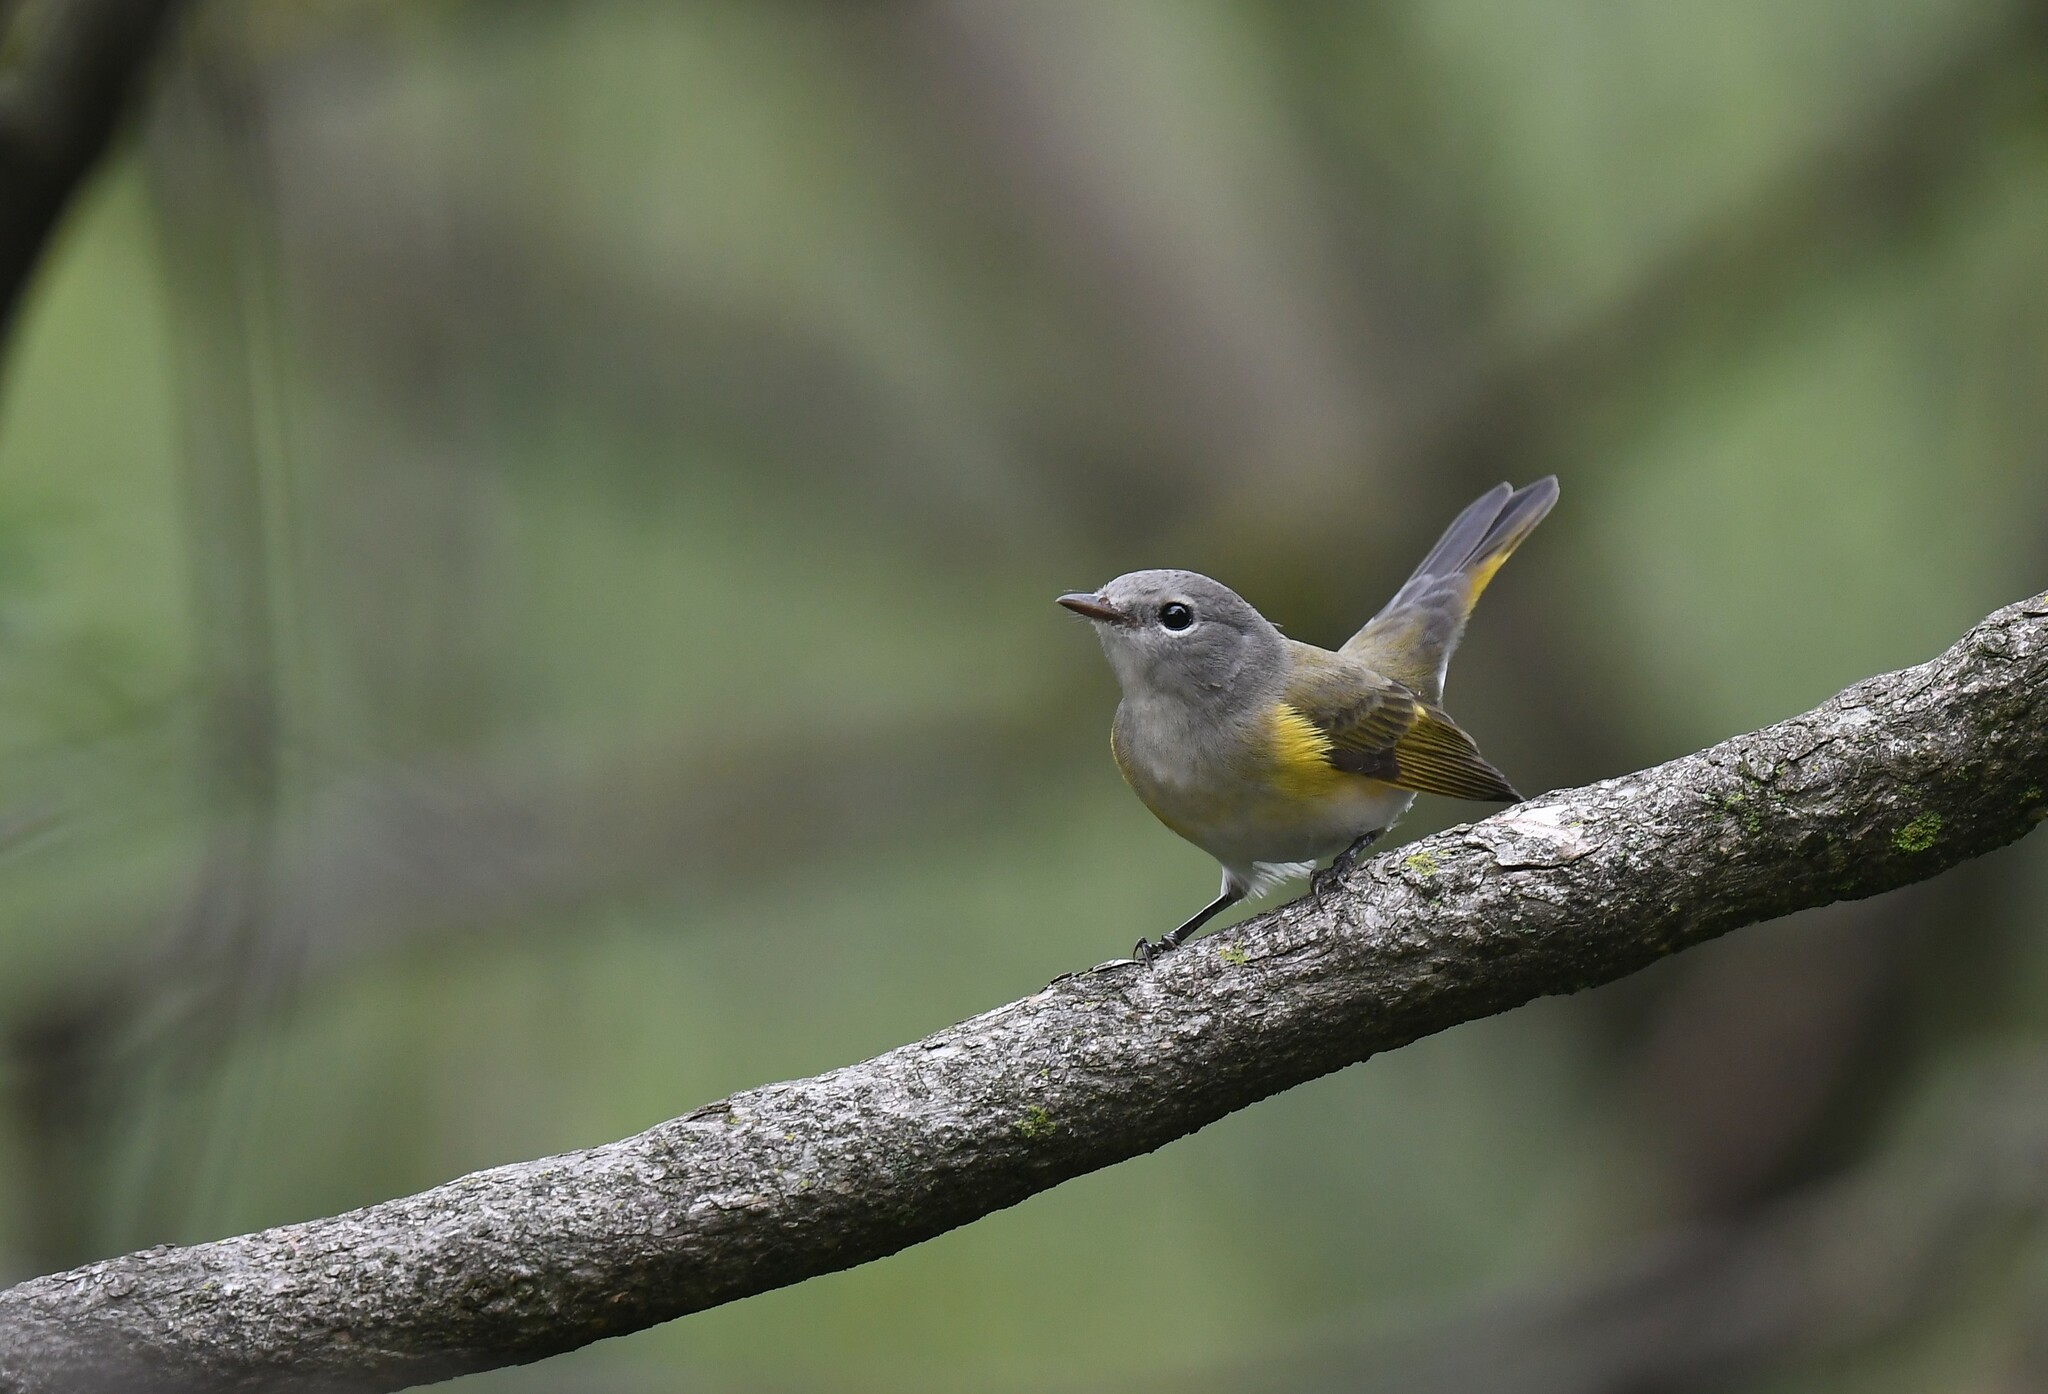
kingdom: Animalia
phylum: Chordata
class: Aves
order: Passeriformes
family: Parulidae
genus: Setophaga
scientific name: Setophaga ruticilla
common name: American redstart
